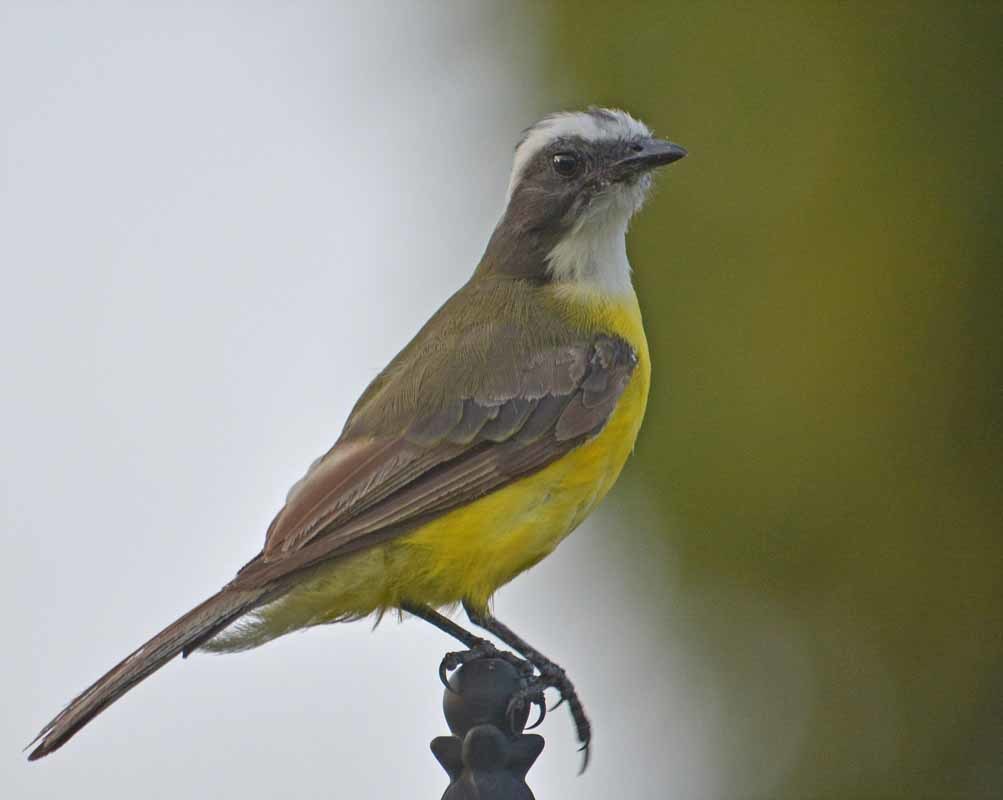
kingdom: Animalia
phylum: Chordata
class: Aves
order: Passeriformes
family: Tyrannidae
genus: Myiozetetes
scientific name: Myiozetetes similis
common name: Social flycatcher
